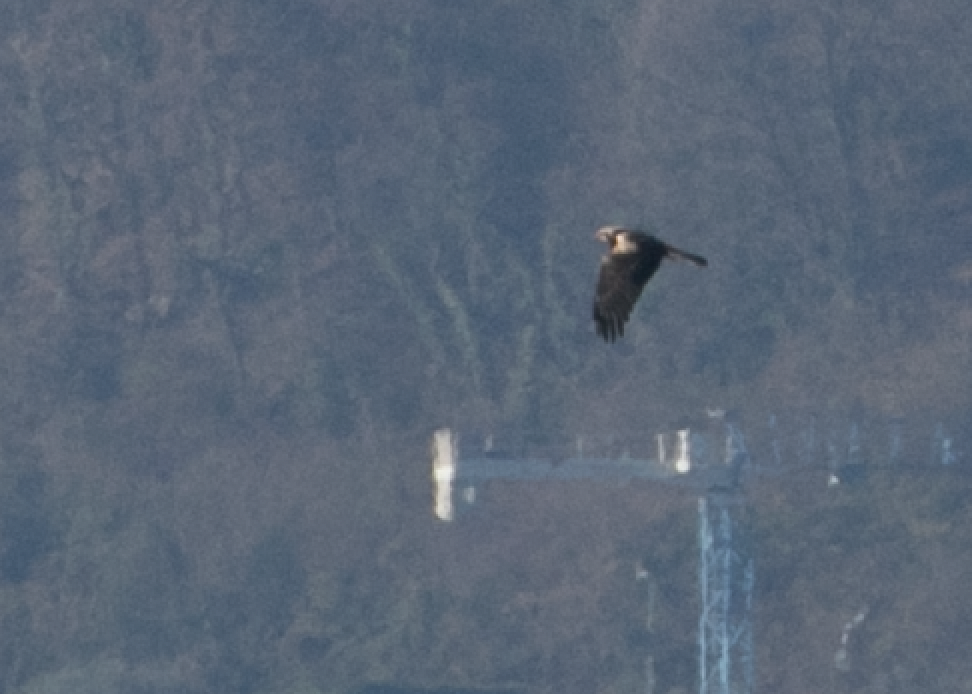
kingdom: Animalia
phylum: Chordata
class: Aves
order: Accipitriformes
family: Accipitridae
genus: Circus
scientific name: Circus aeruginosus
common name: Western marsh harrier
